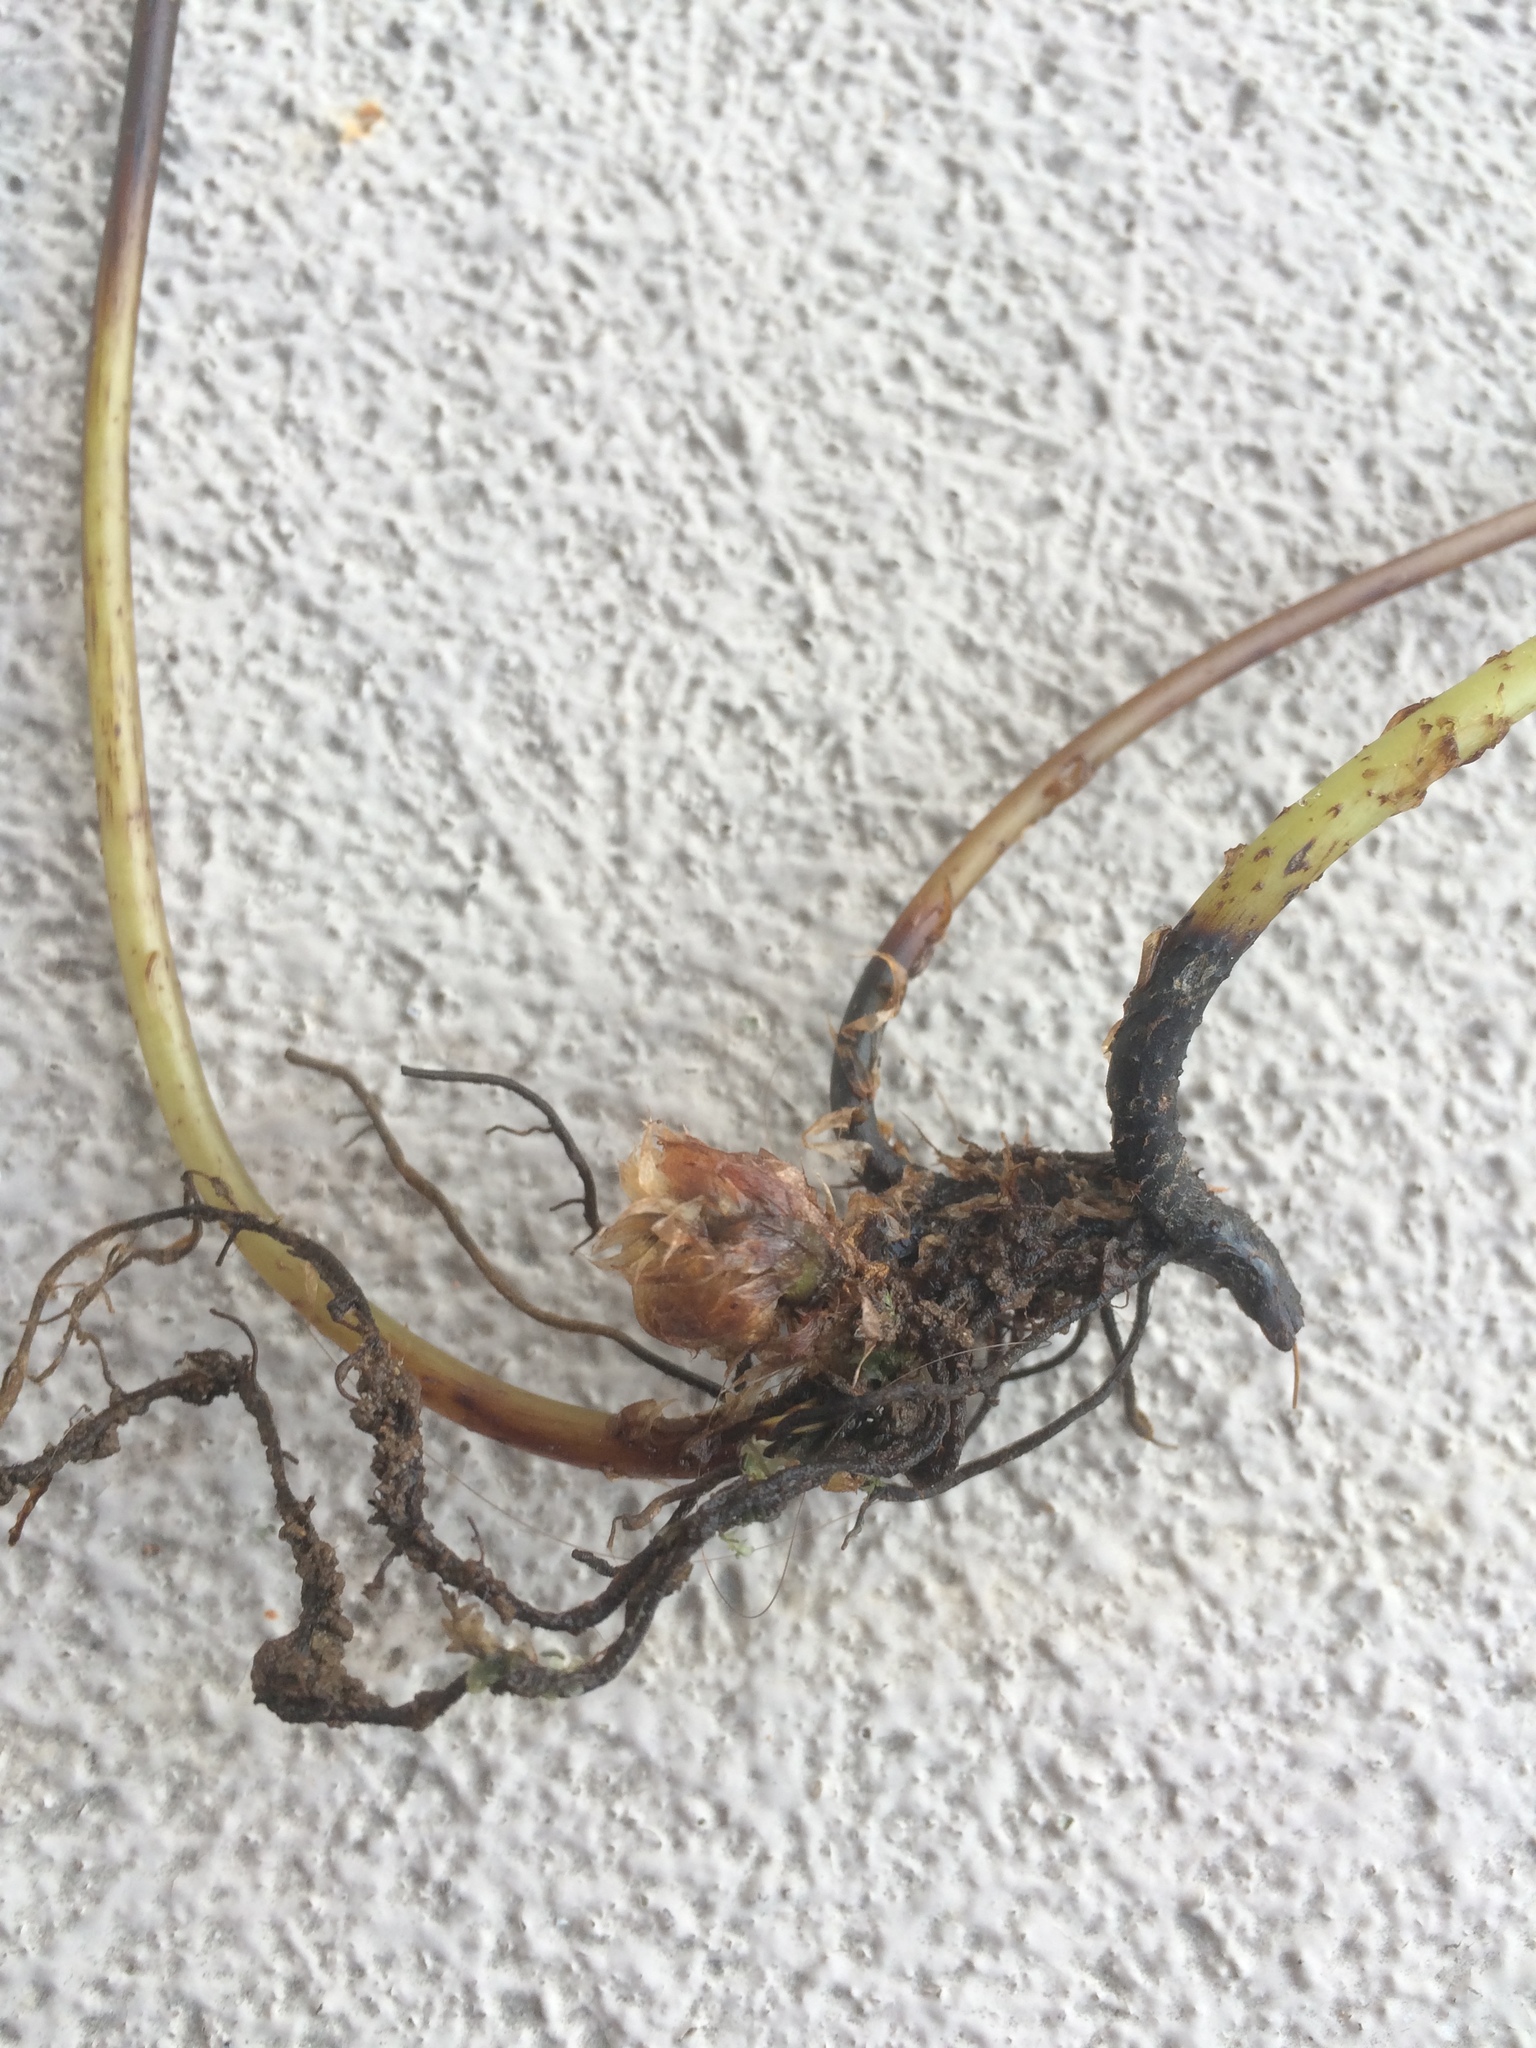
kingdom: Plantae
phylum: Tracheophyta
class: Polypodiopsida
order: Polypodiales
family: Thelypteridaceae
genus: Phegopteris
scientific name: Phegopteris excelsior
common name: Tall beech fern
